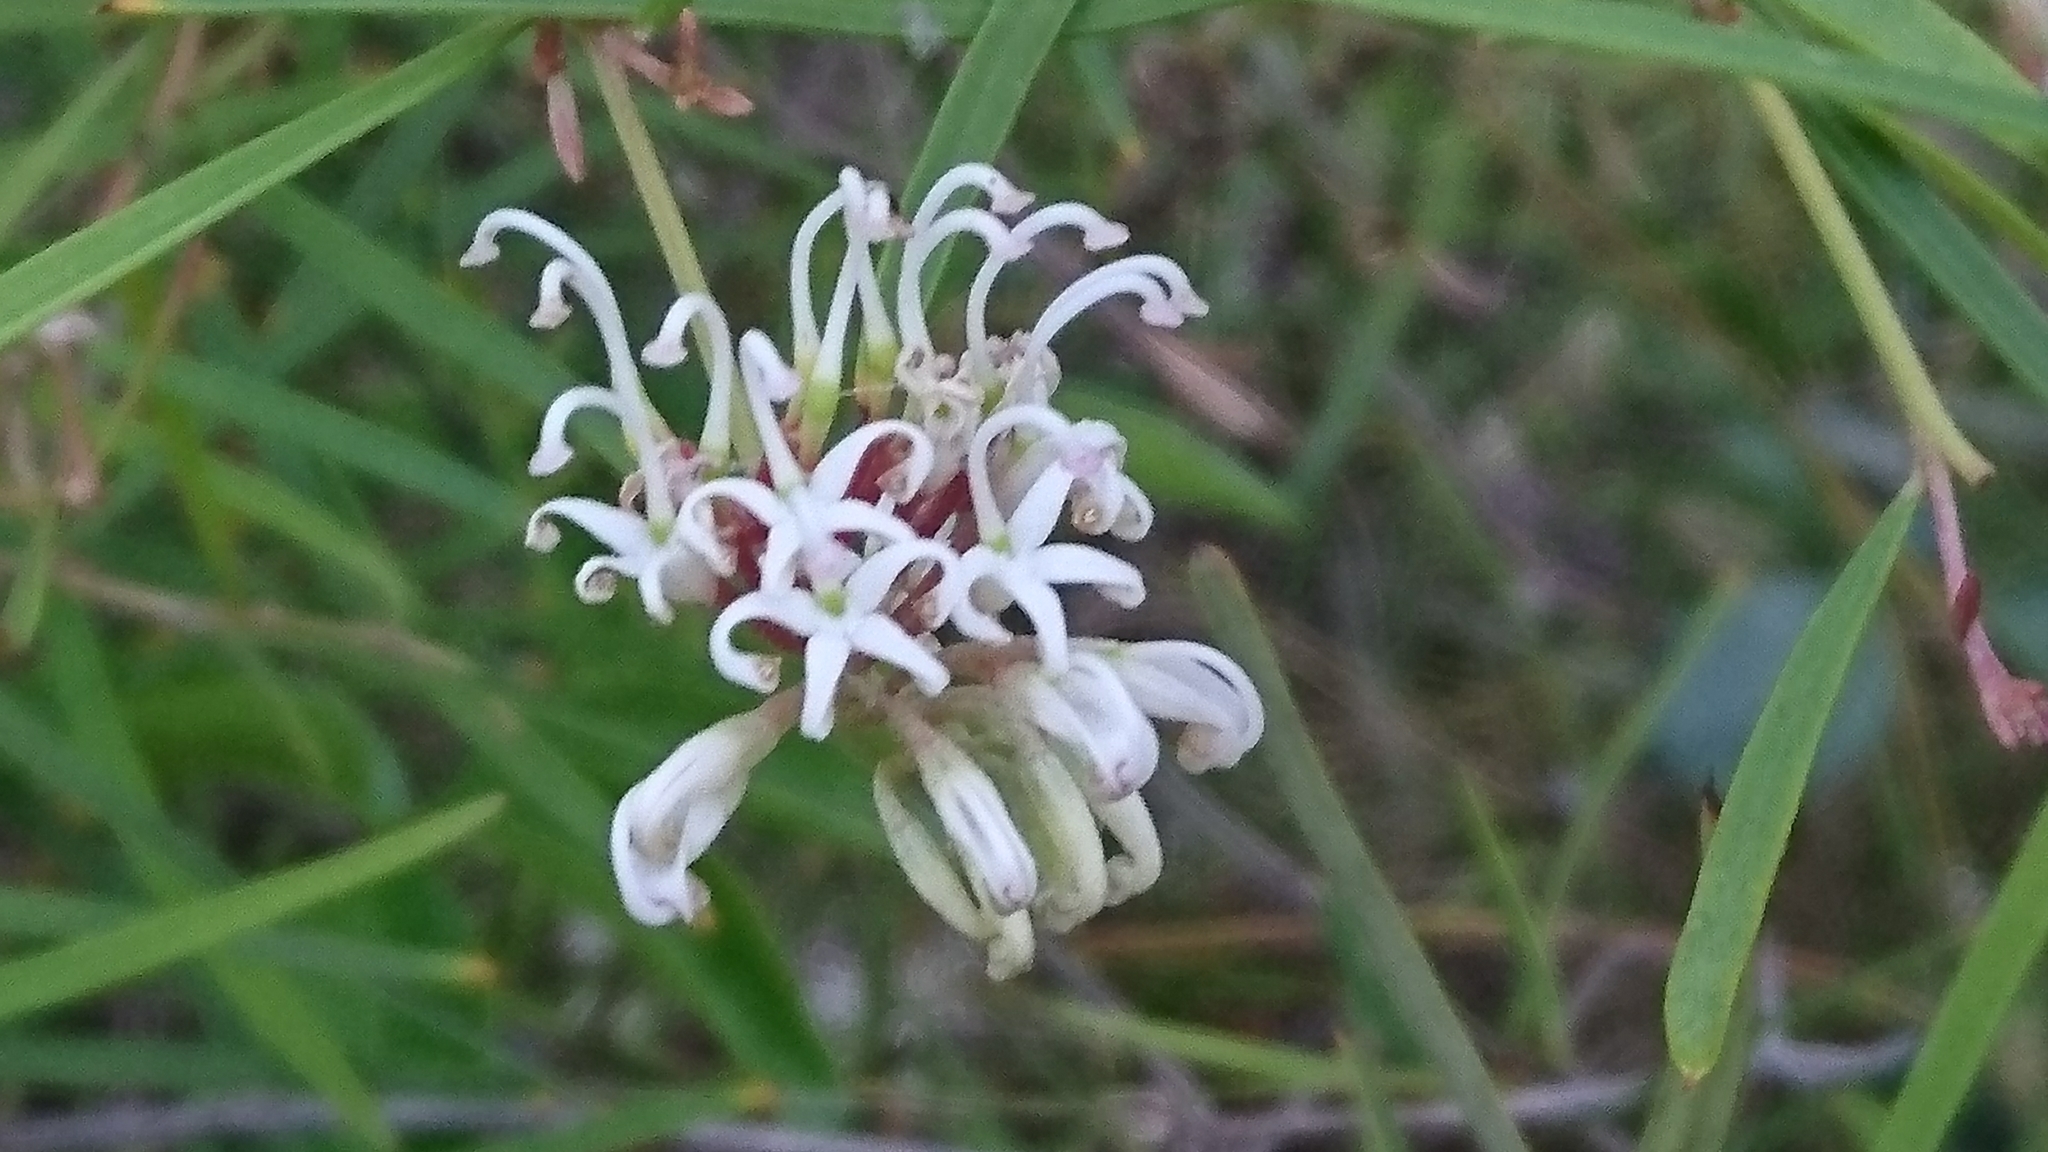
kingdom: Plantae
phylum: Tracheophyta
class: Magnoliopsida
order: Proteales
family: Proteaceae
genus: Grevillea
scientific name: Grevillea linearifolia
